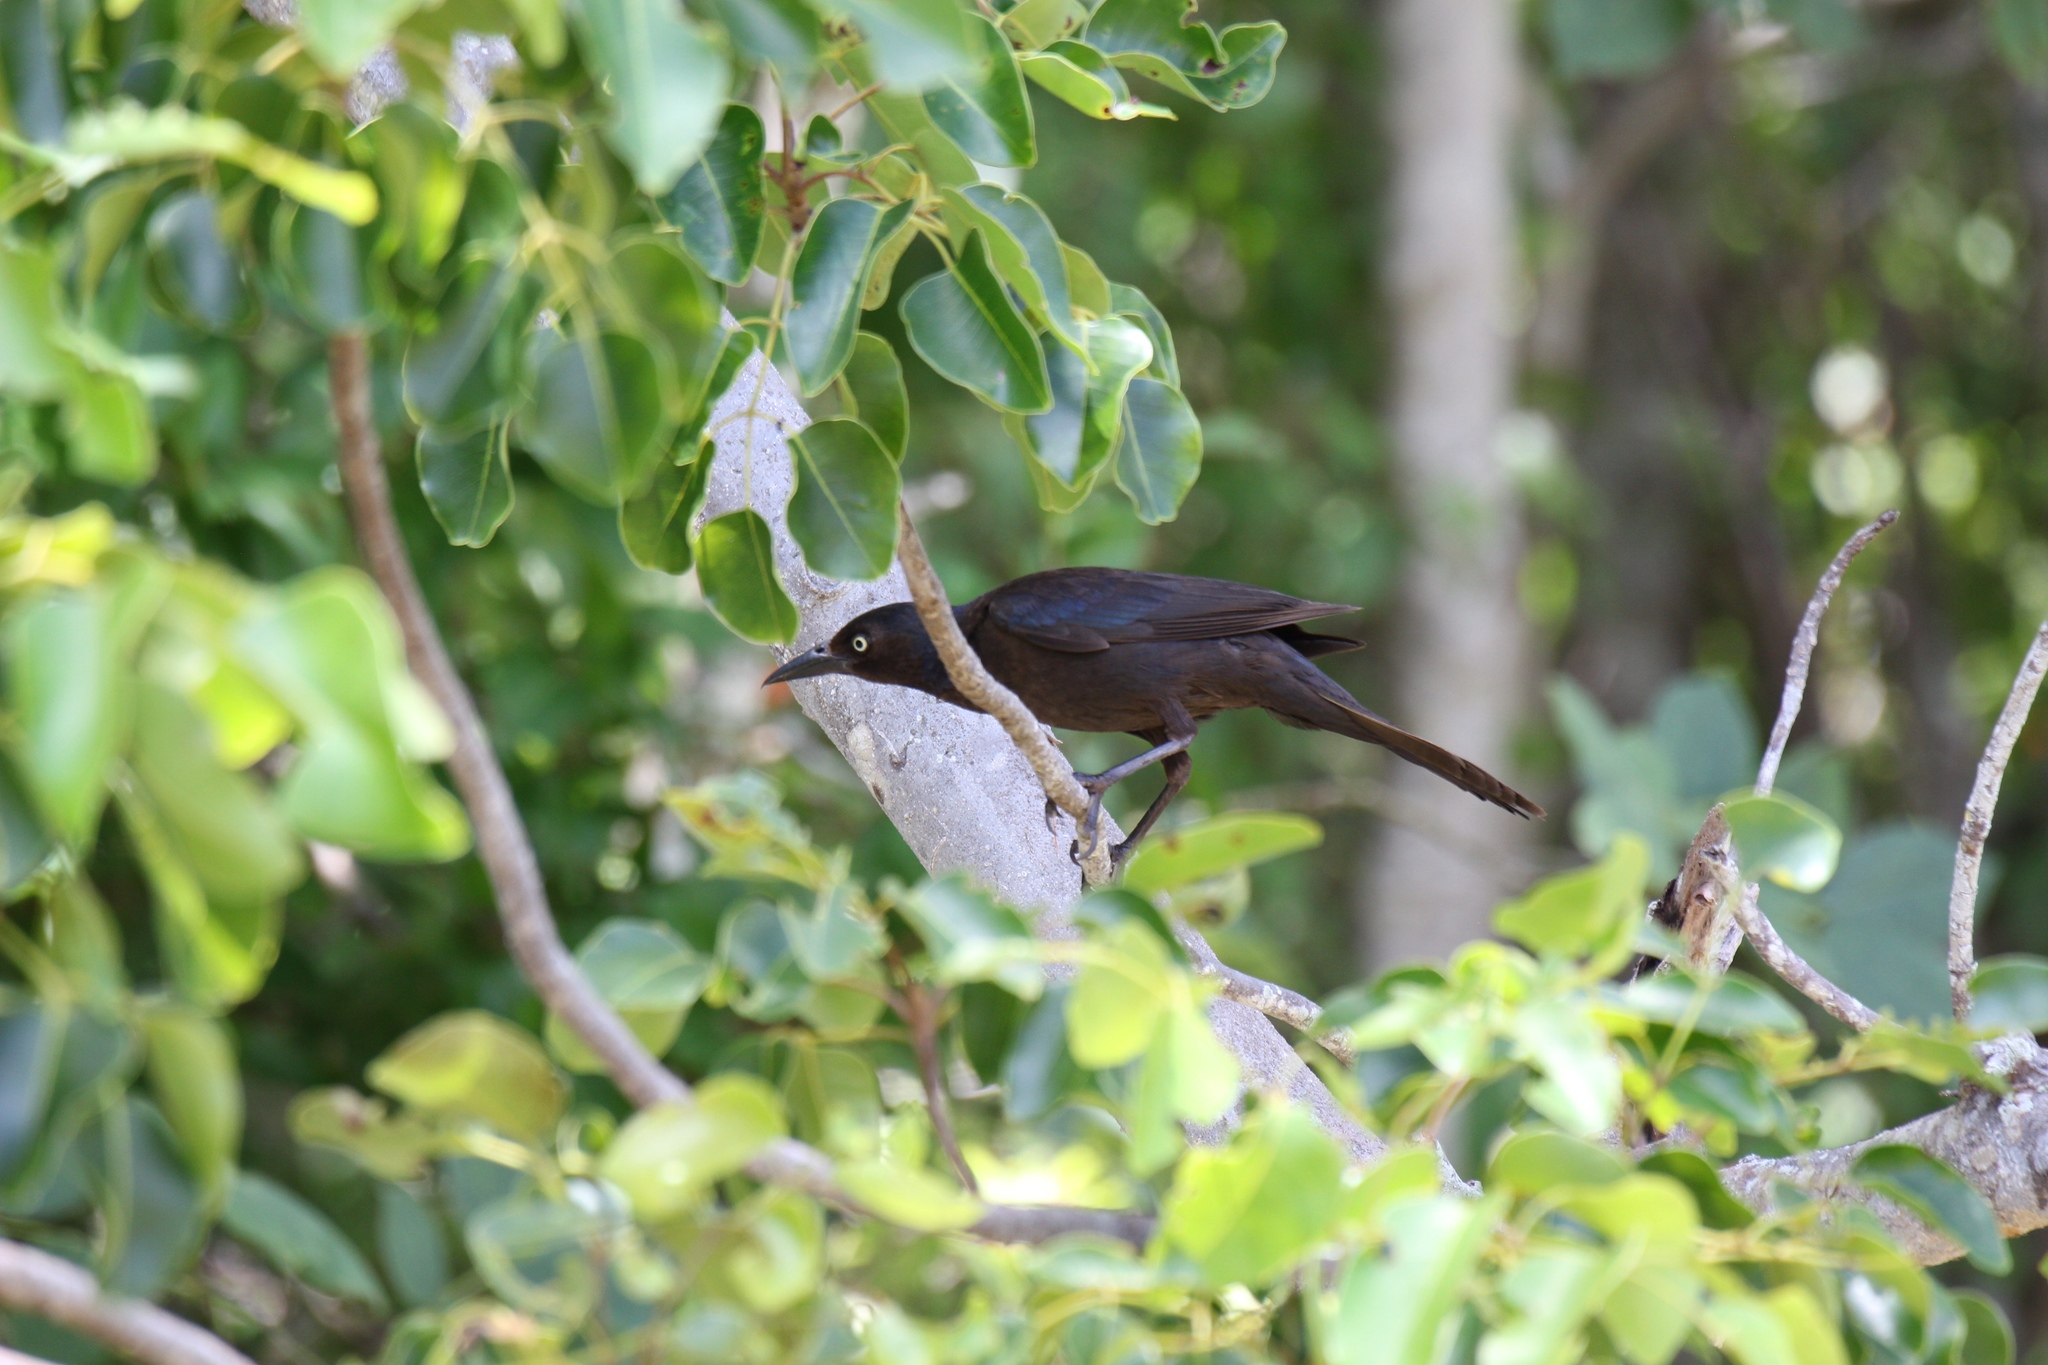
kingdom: Animalia
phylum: Chordata
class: Aves
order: Passeriformes
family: Icteridae
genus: Quiscalus
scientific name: Quiscalus quiscula
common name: Common grackle
